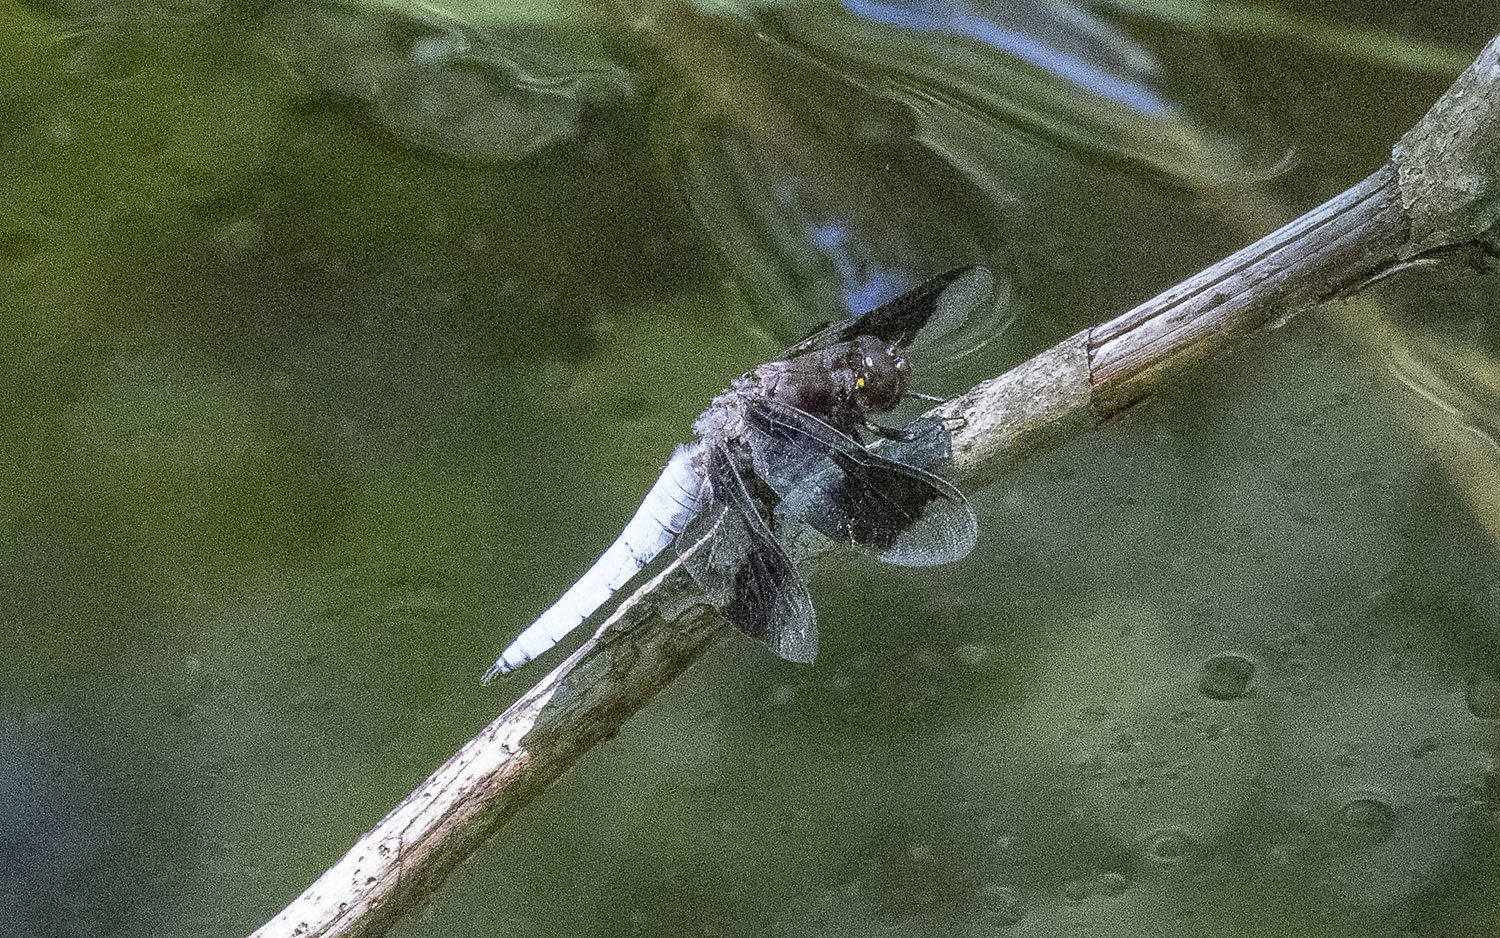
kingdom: Animalia
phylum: Arthropoda
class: Insecta
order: Odonata
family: Libellulidae
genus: Plathemis
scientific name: Plathemis lydia
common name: Common whitetail
